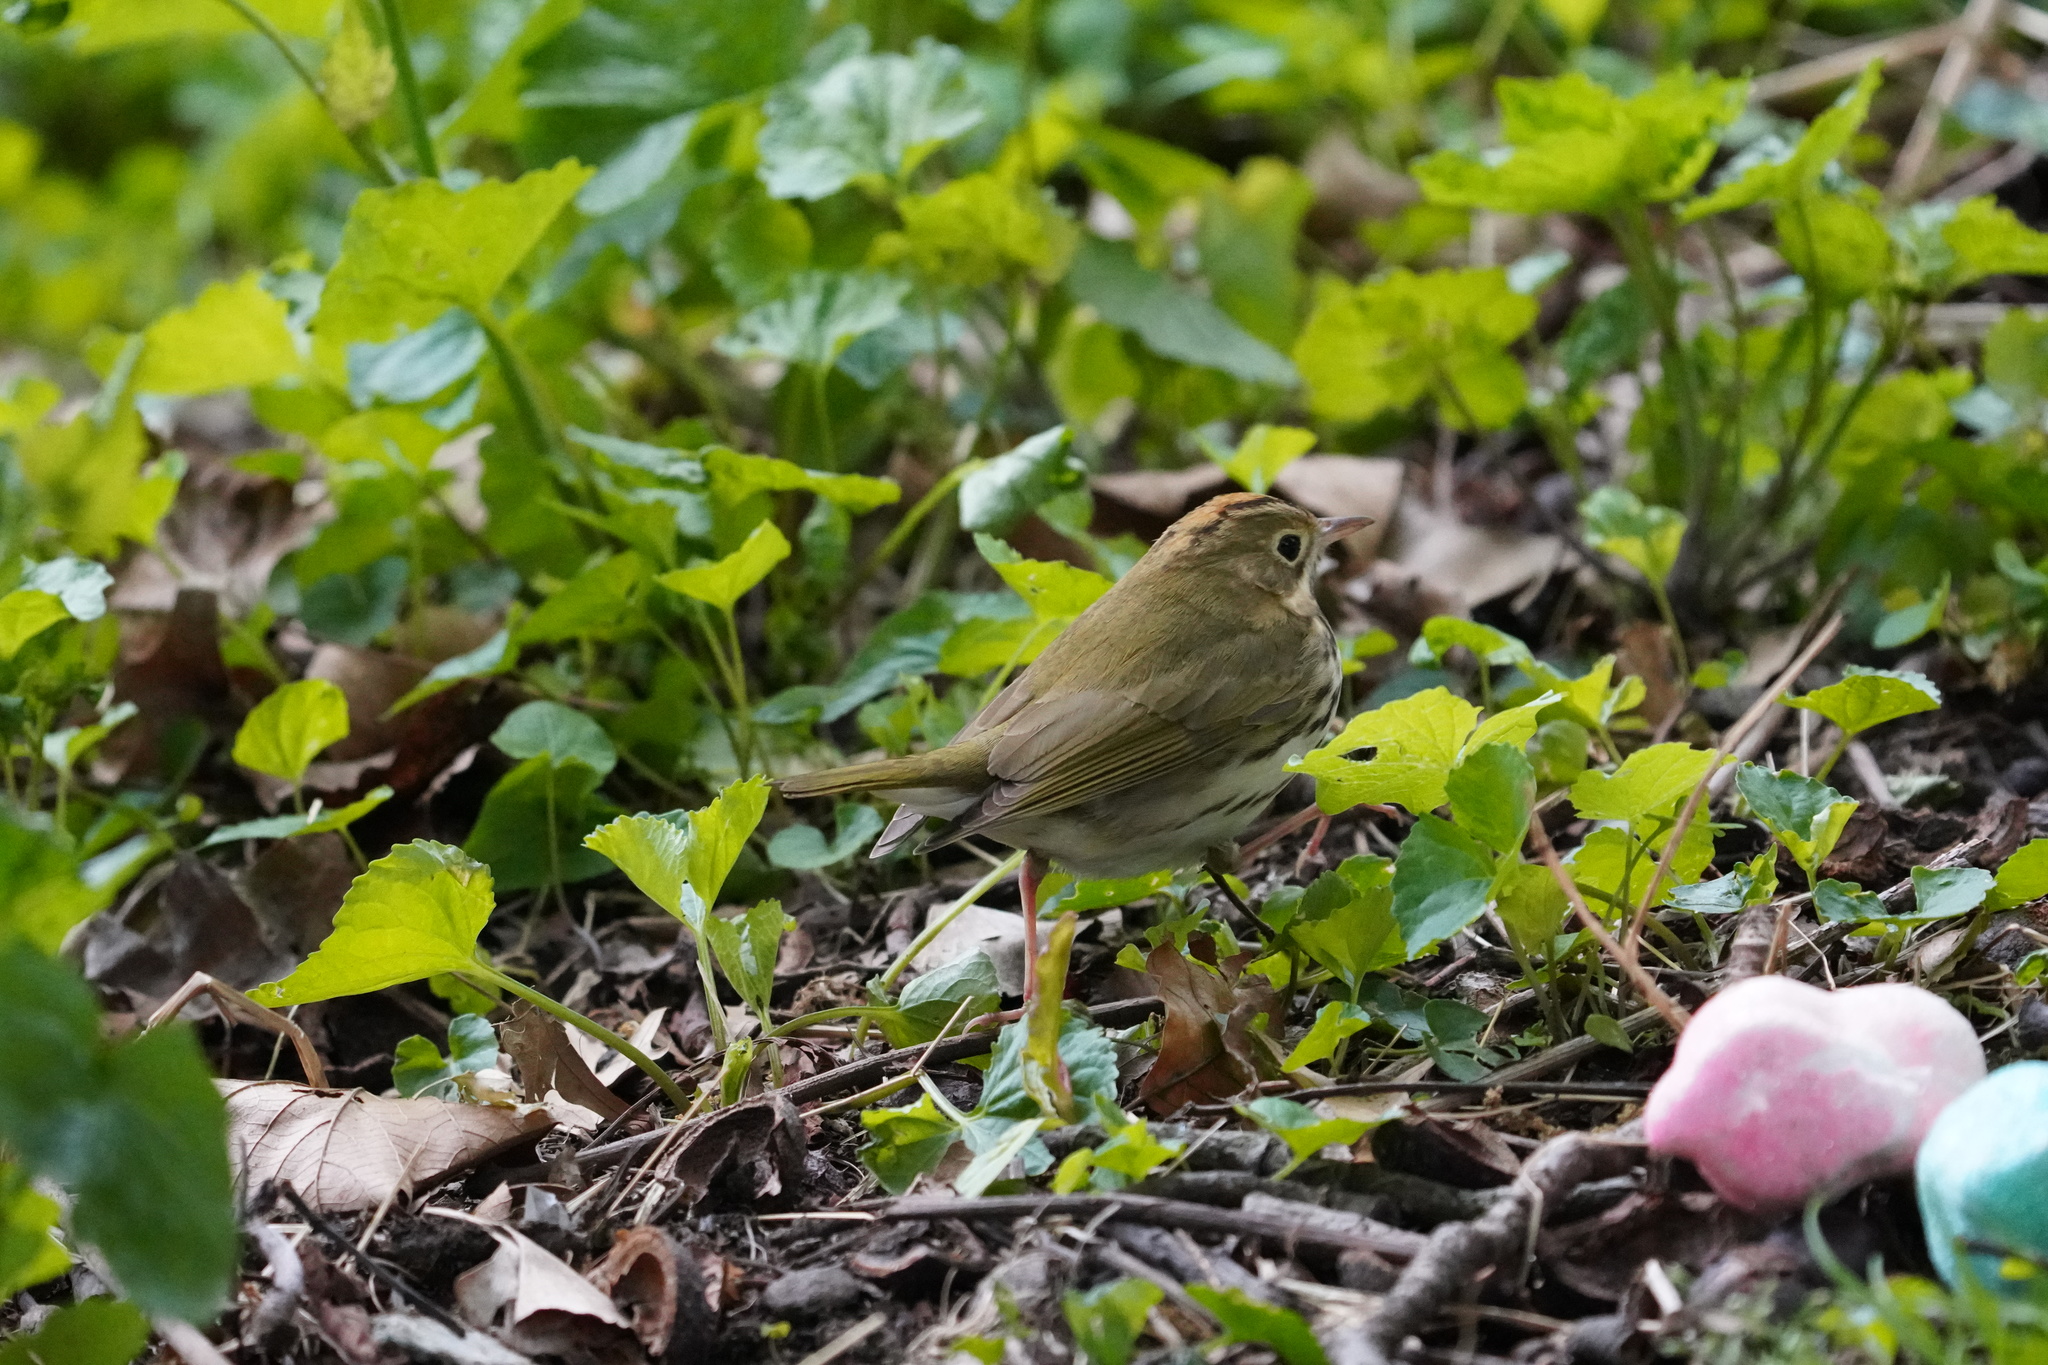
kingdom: Animalia
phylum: Chordata
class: Aves
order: Passeriformes
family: Parulidae
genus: Seiurus
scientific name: Seiurus aurocapilla
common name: Ovenbird
